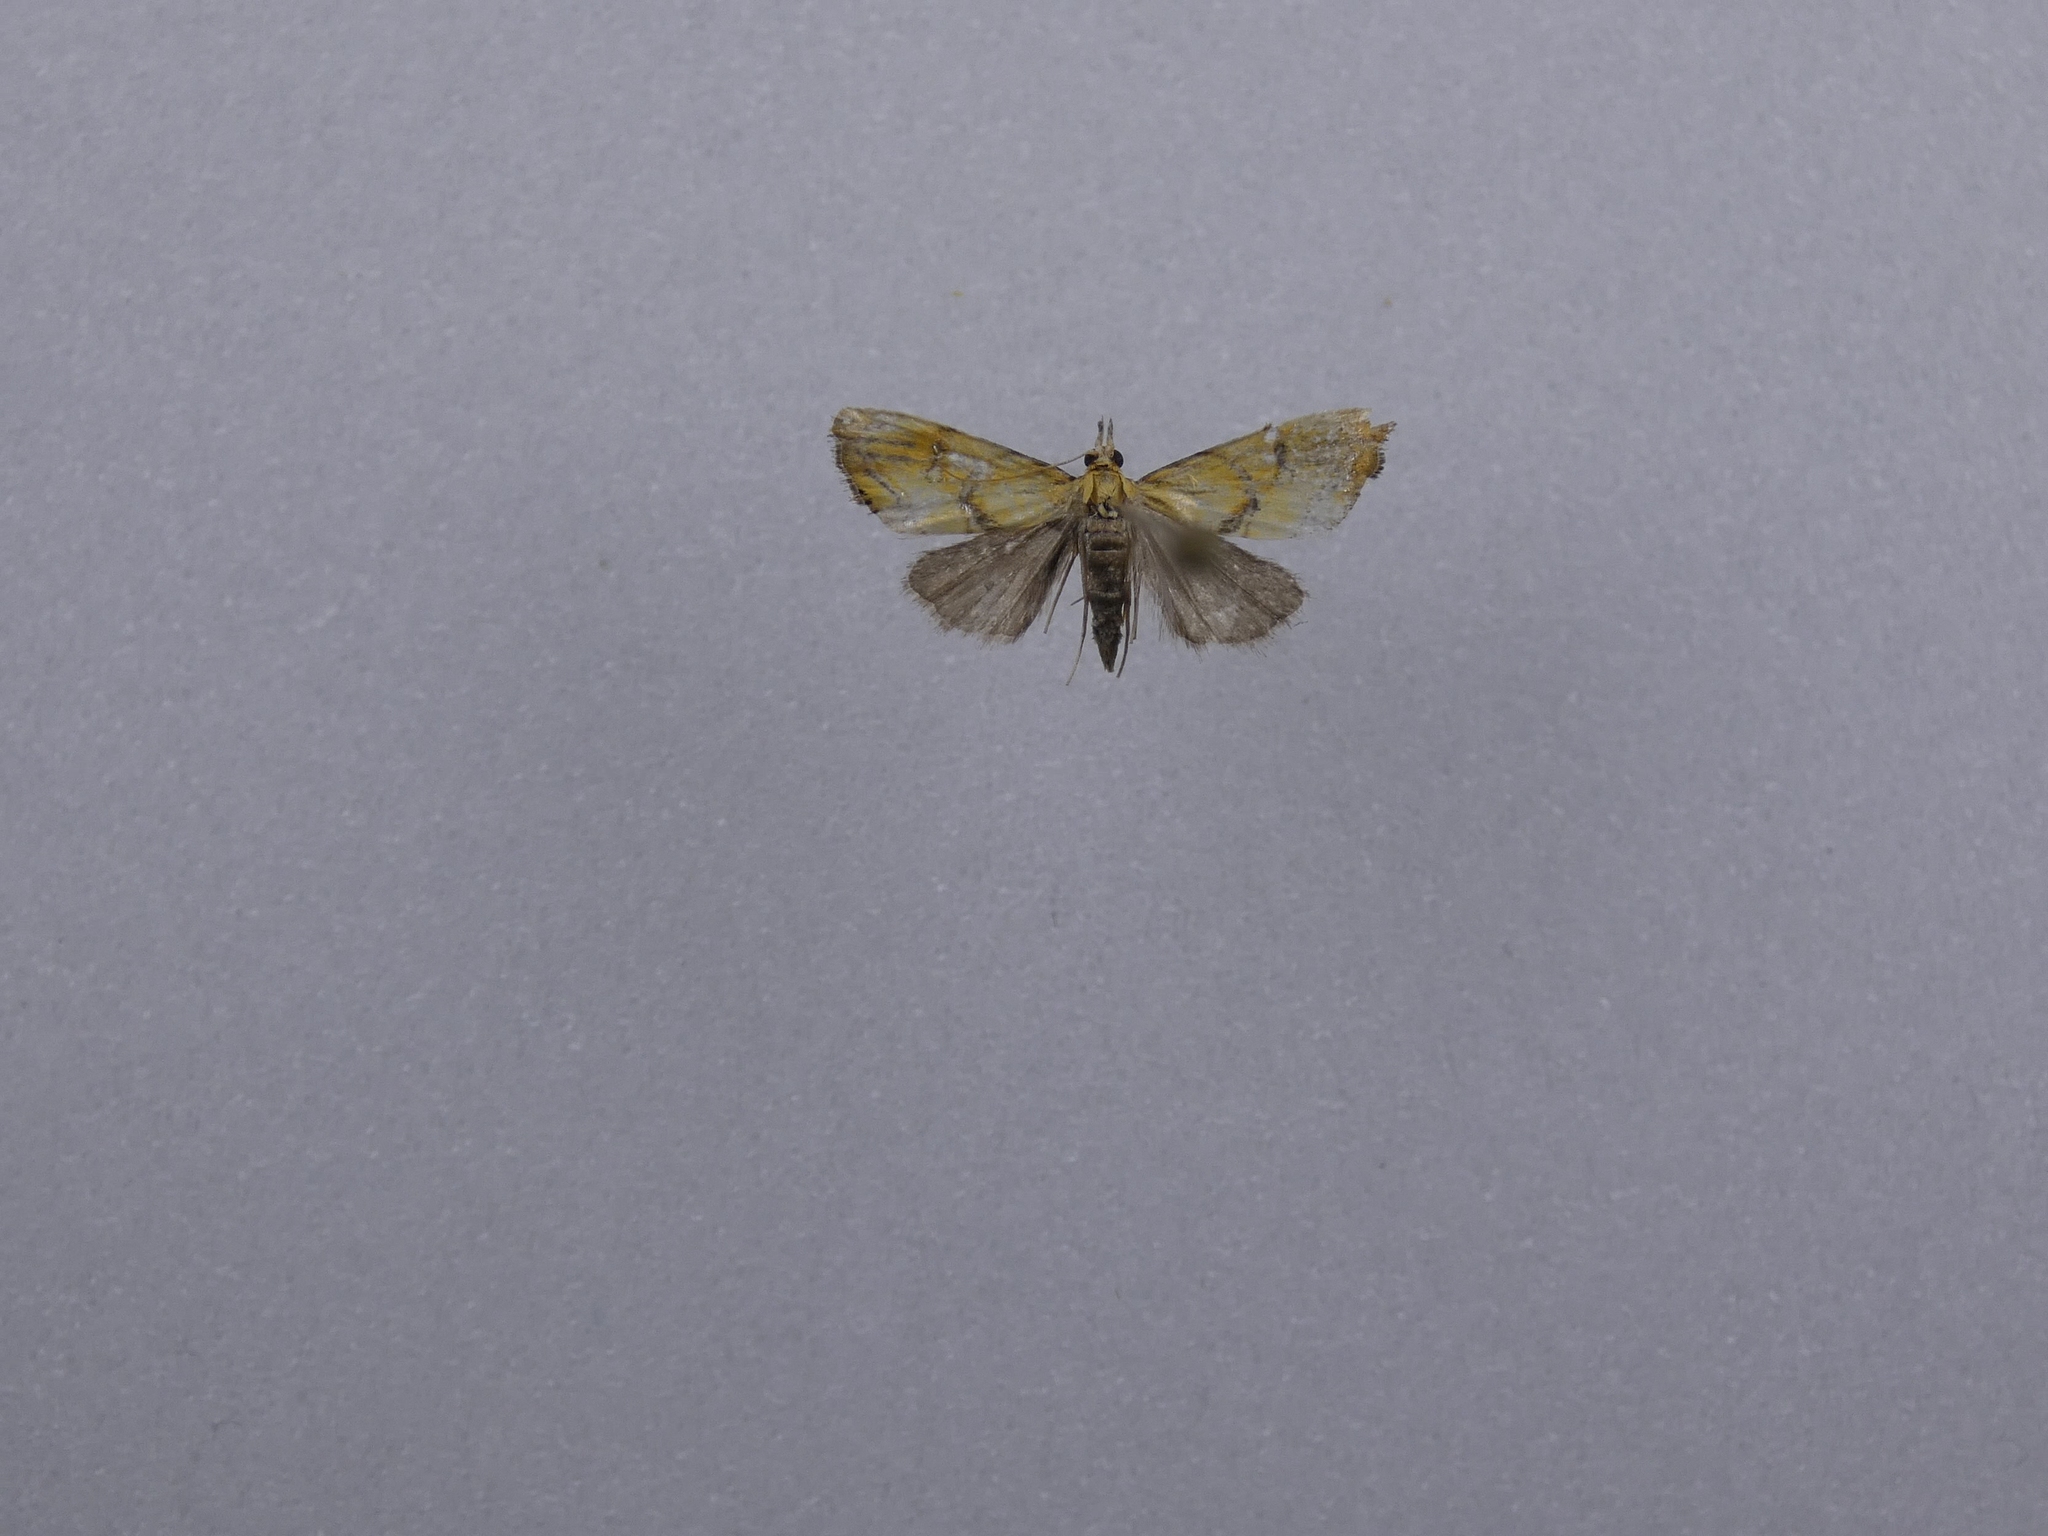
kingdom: Animalia
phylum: Arthropoda
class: Insecta
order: Lepidoptera
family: Crambidae
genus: Glaucocharis
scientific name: Glaucocharis auriscriptella
